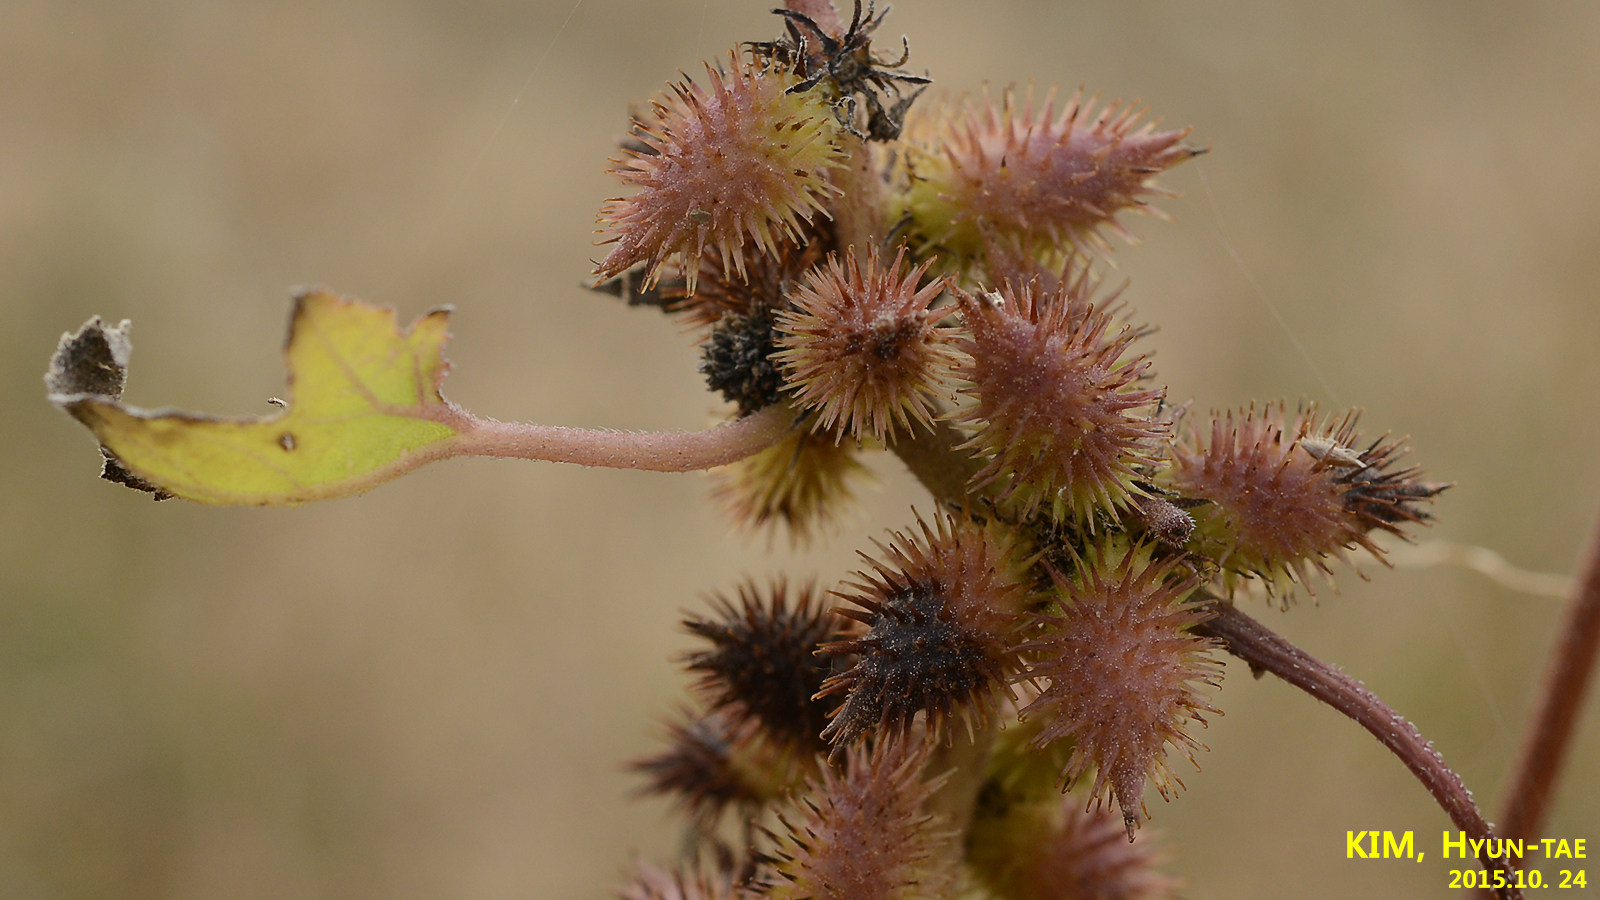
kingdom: Plantae
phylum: Tracheophyta
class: Magnoliopsida
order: Asterales
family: Asteraceae
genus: Xanthium
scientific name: Xanthium strumarium
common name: Rough cocklebur
